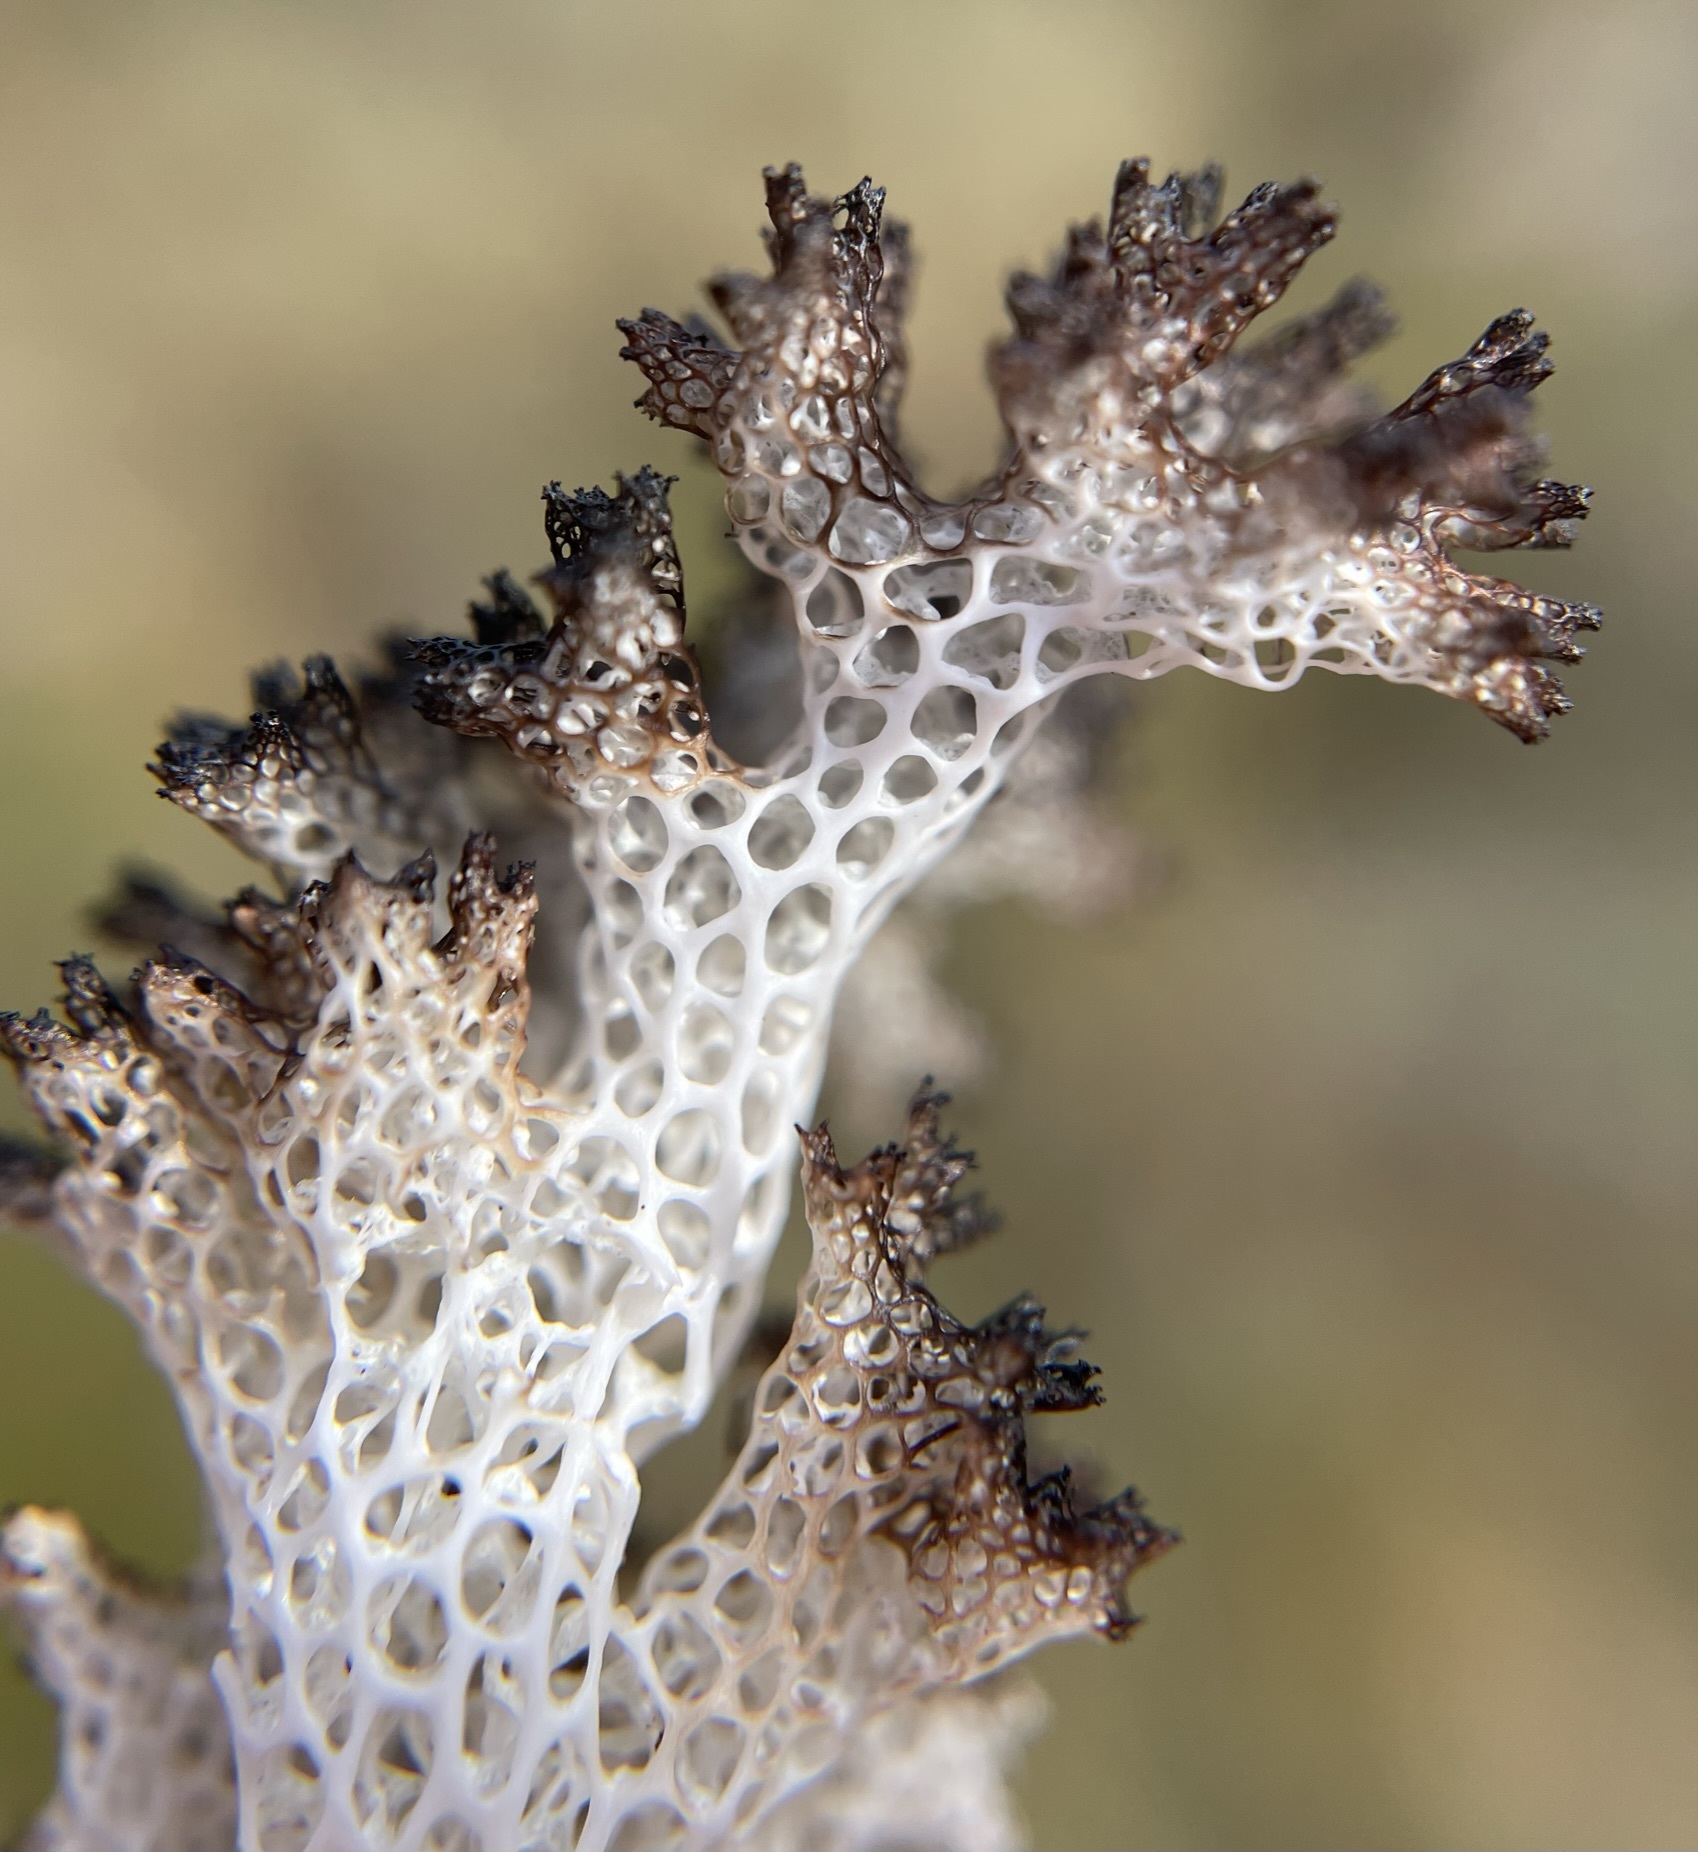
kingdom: Fungi
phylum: Ascomycota
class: Lecanoromycetes
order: Lecanorales
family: Cladoniaceae
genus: Pulchrocladia
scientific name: Pulchrocladia retipora
